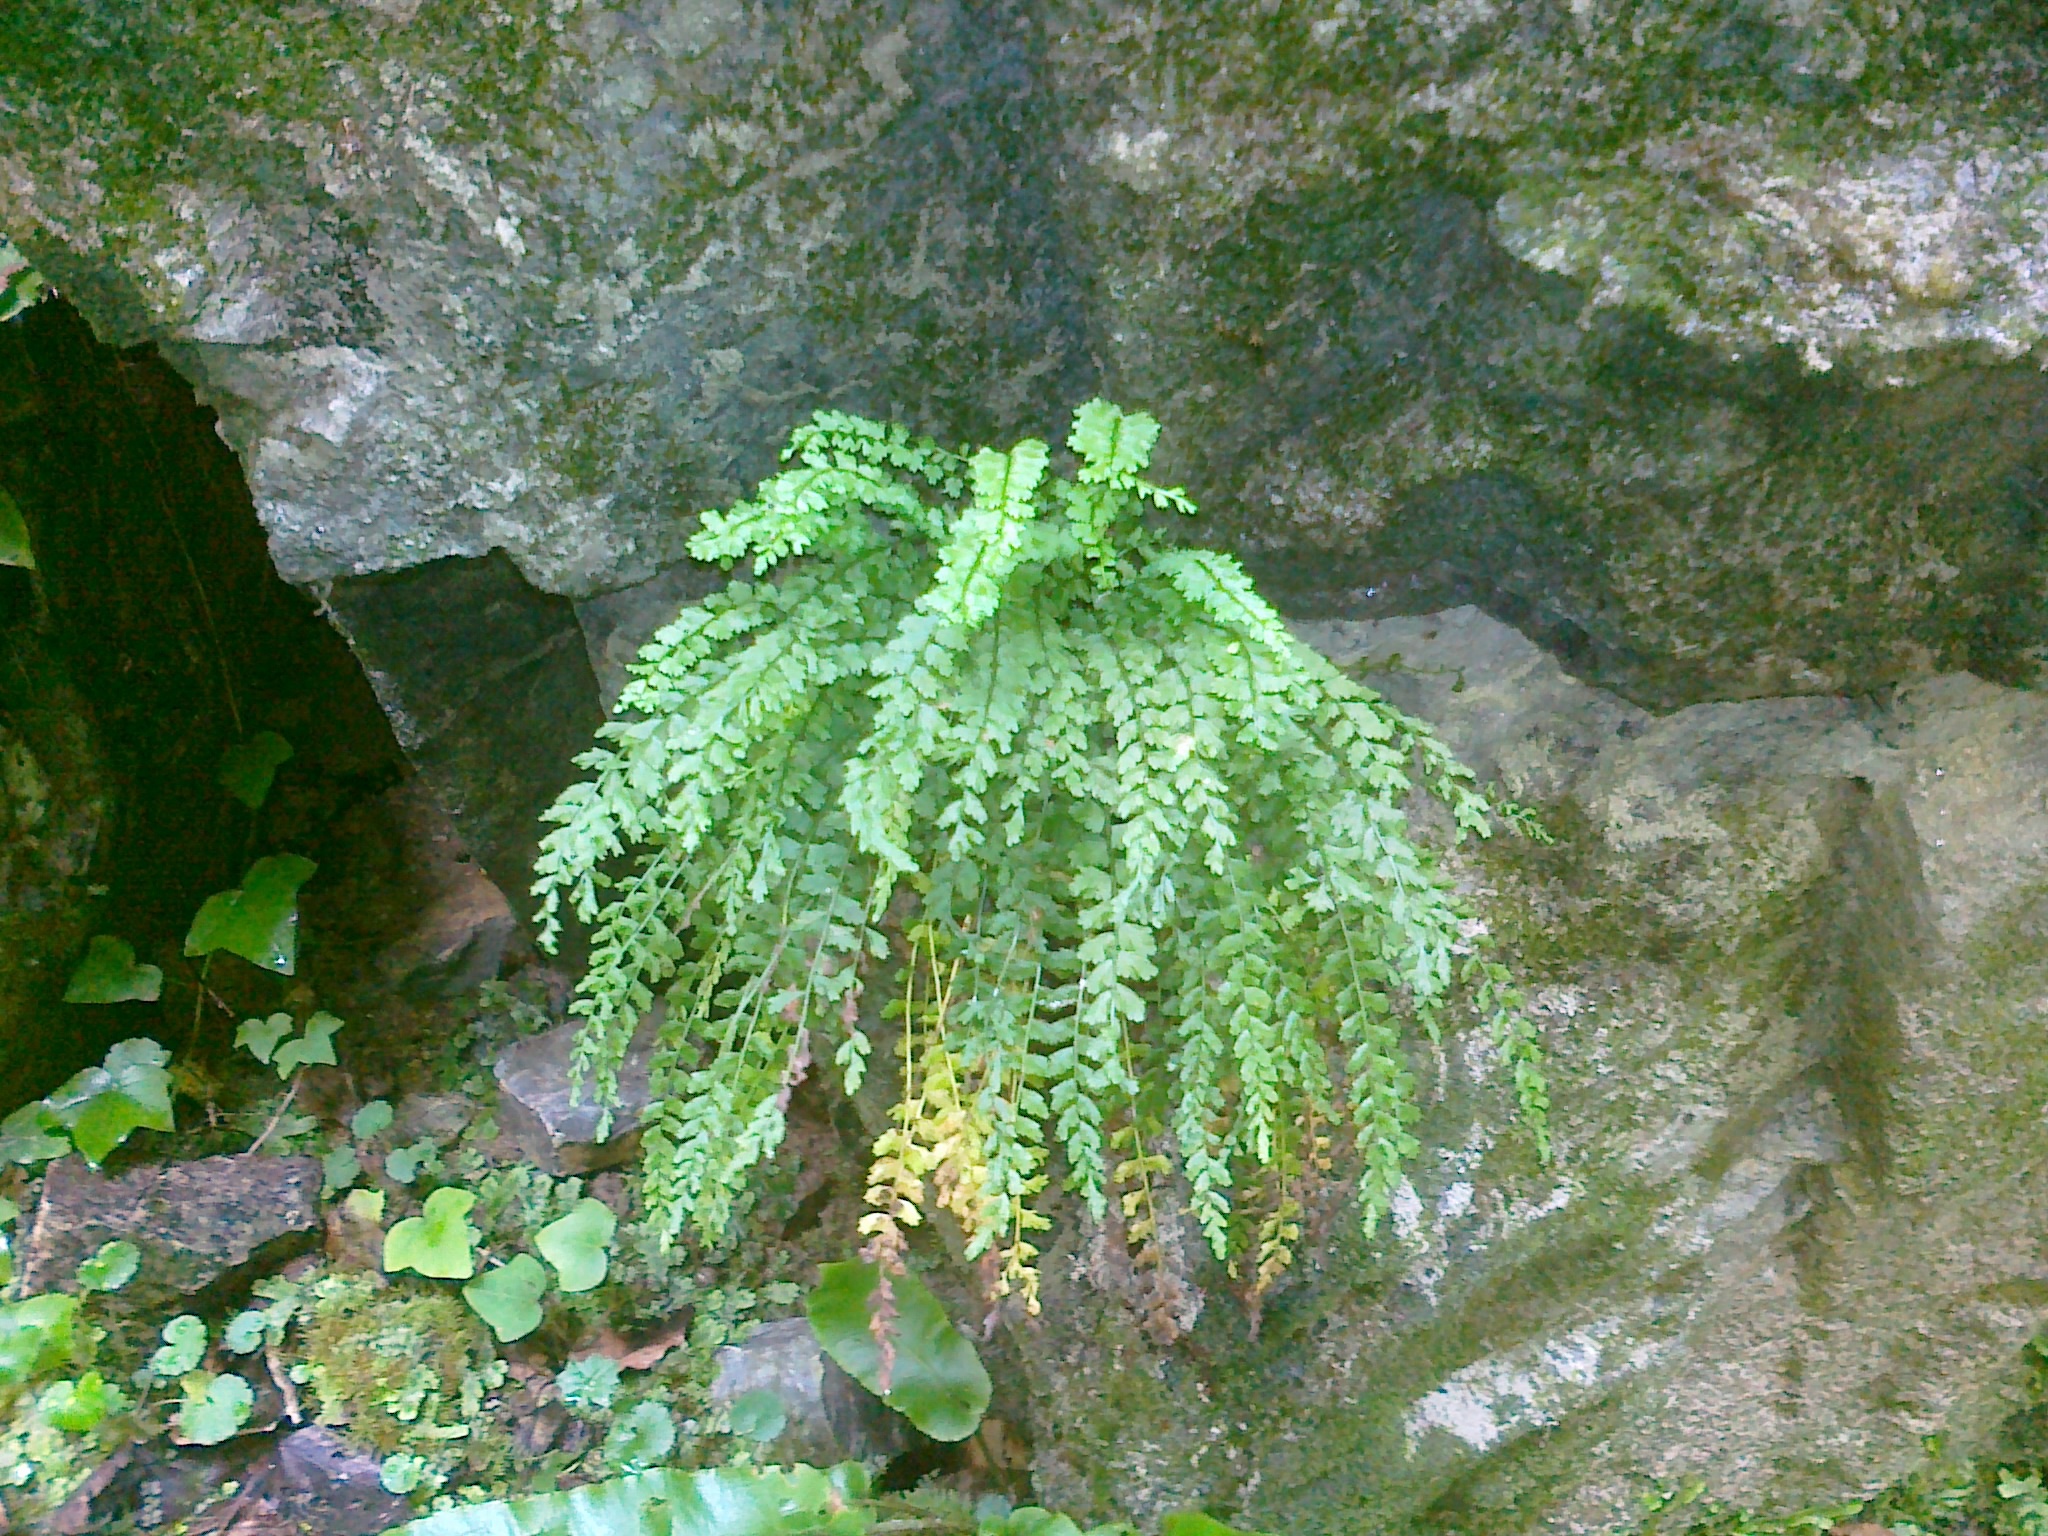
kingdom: Plantae
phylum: Tracheophyta
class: Polypodiopsida
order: Polypodiales
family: Aspleniaceae
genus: Asplenium
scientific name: Asplenium viride
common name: Green spleenwort
